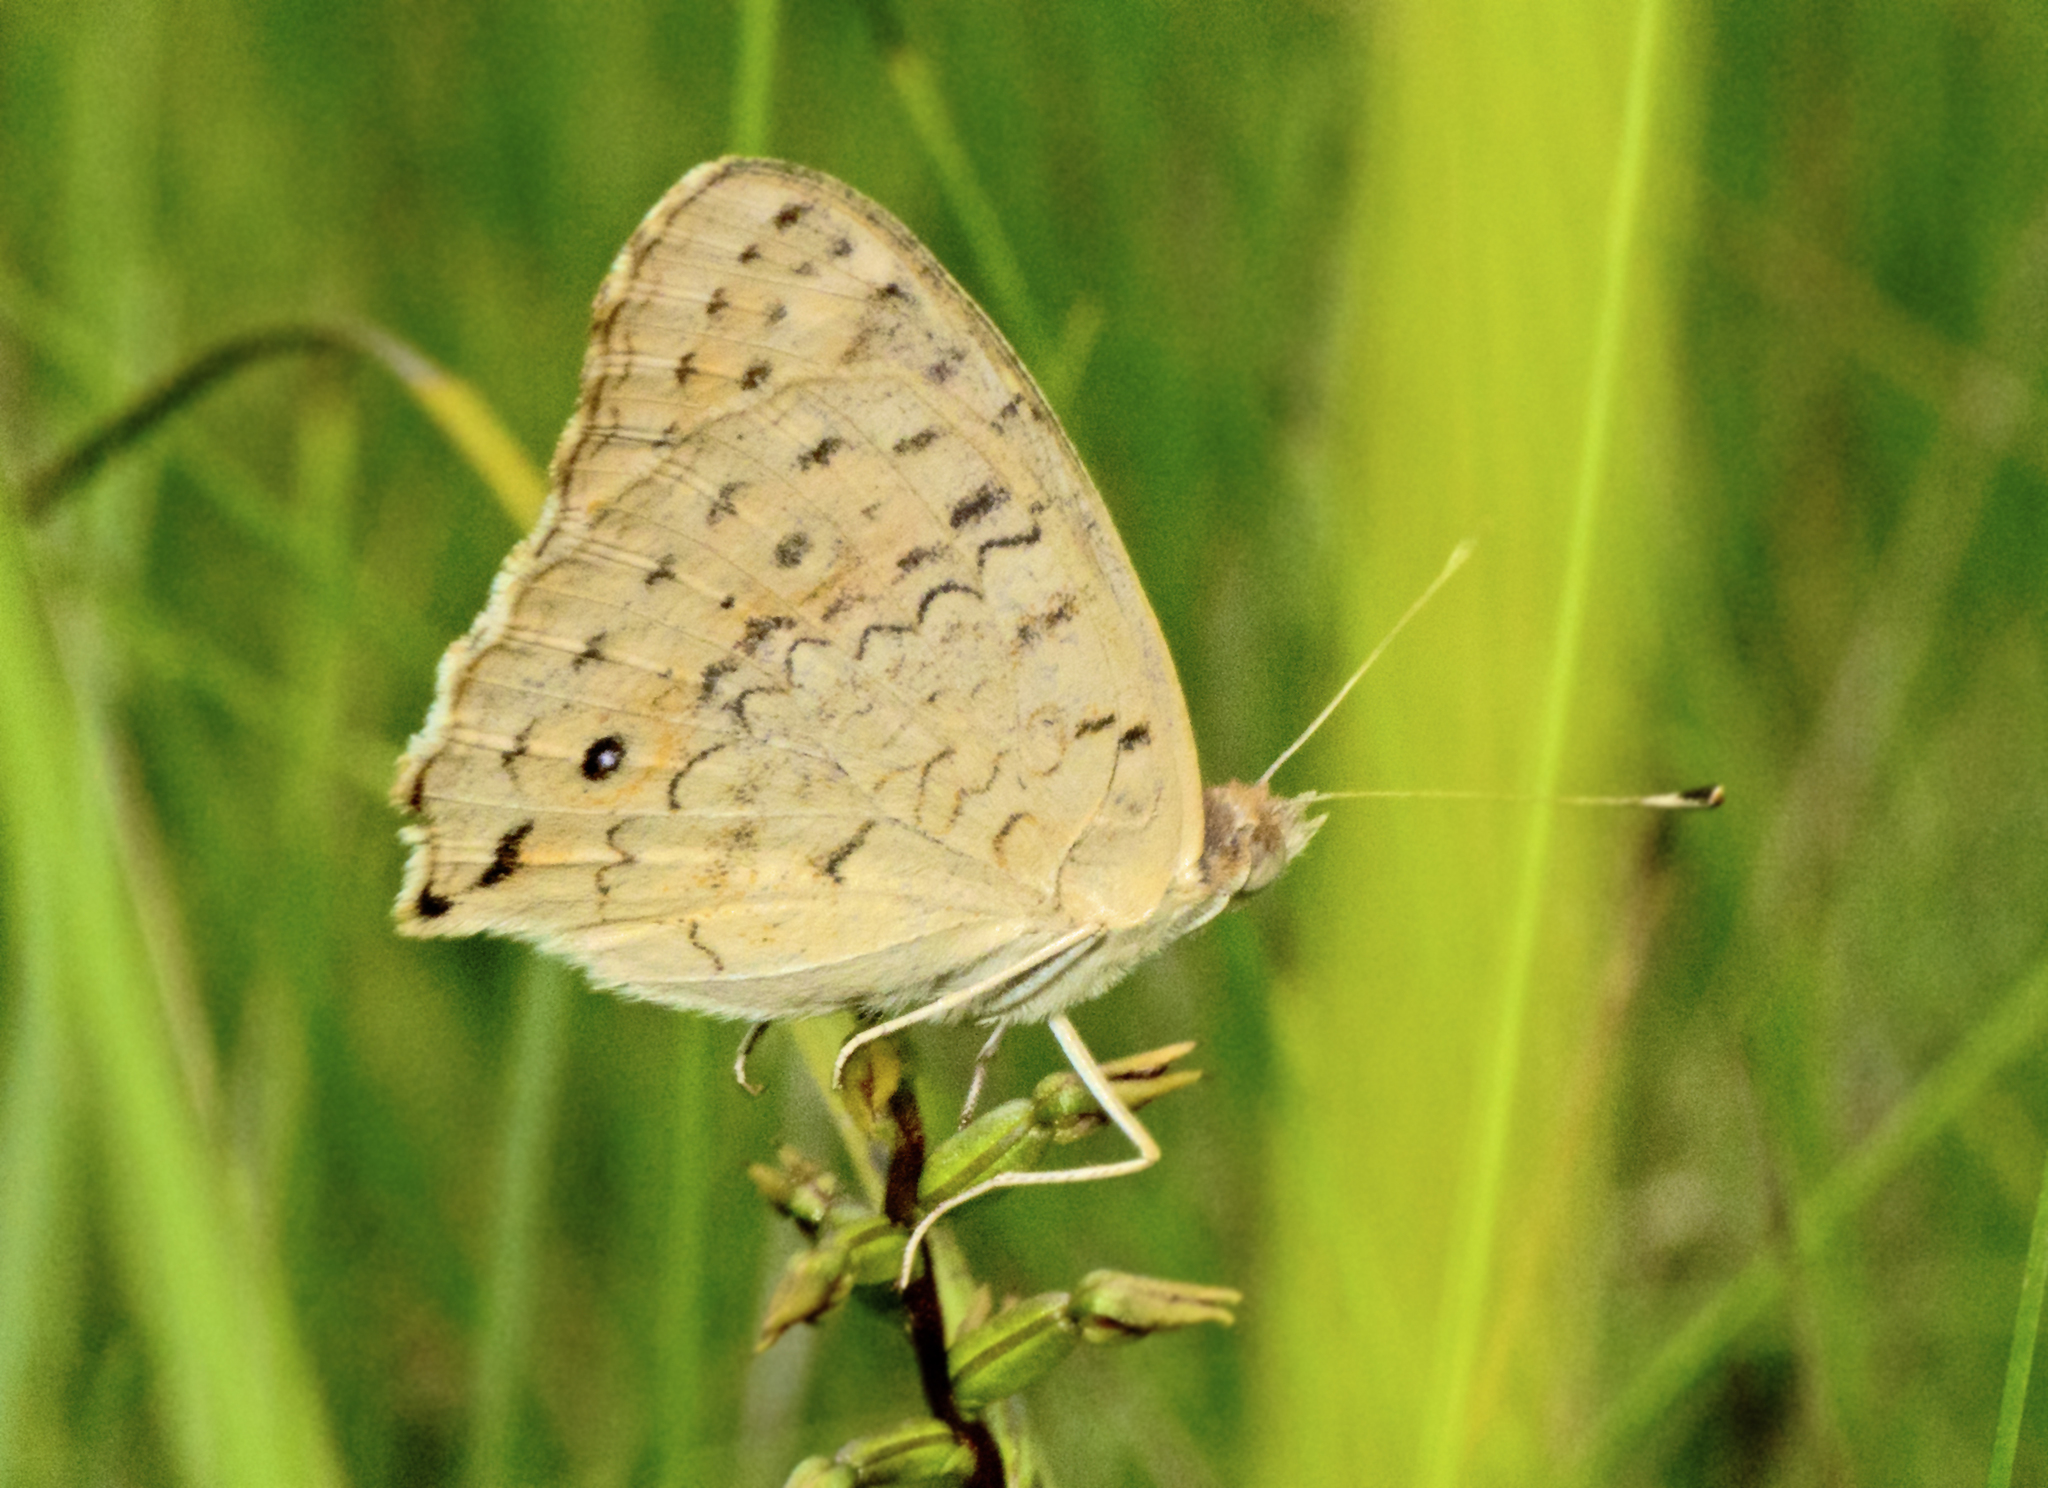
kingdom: Animalia
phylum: Arthropoda
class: Insecta
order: Lepidoptera
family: Nymphalidae
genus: Junonia
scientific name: Junonia villida
